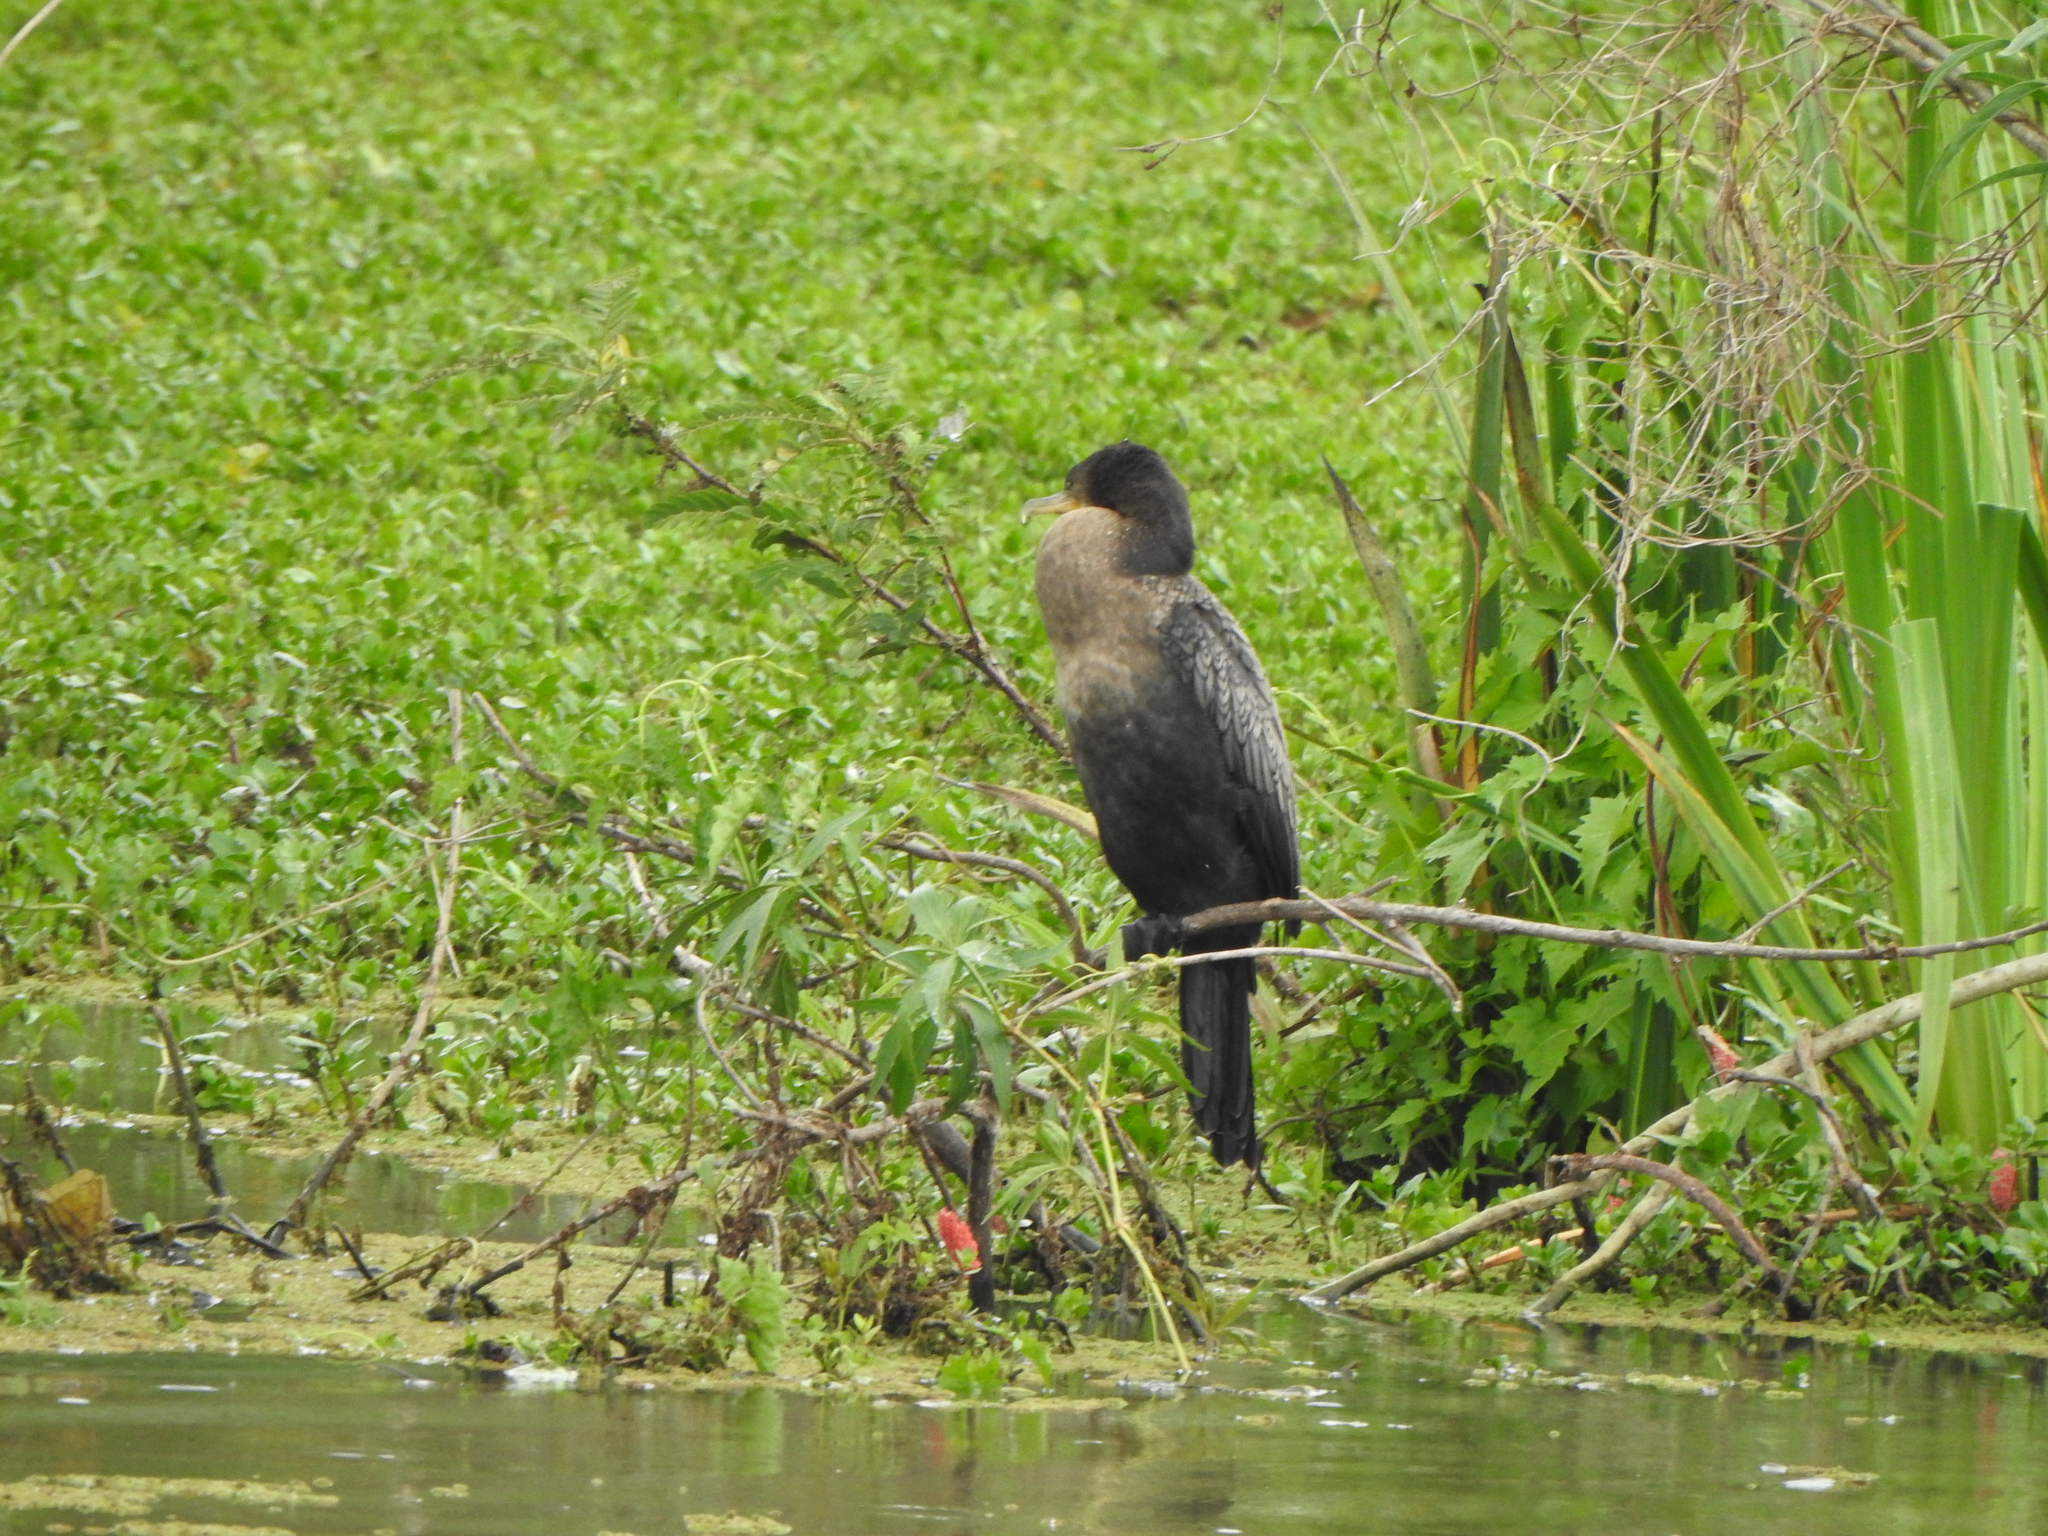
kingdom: Animalia
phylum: Chordata
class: Aves
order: Suliformes
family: Phalacrocoracidae
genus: Phalacrocorax
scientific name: Phalacrocorax brasilianus
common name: Neotropic cormorant
